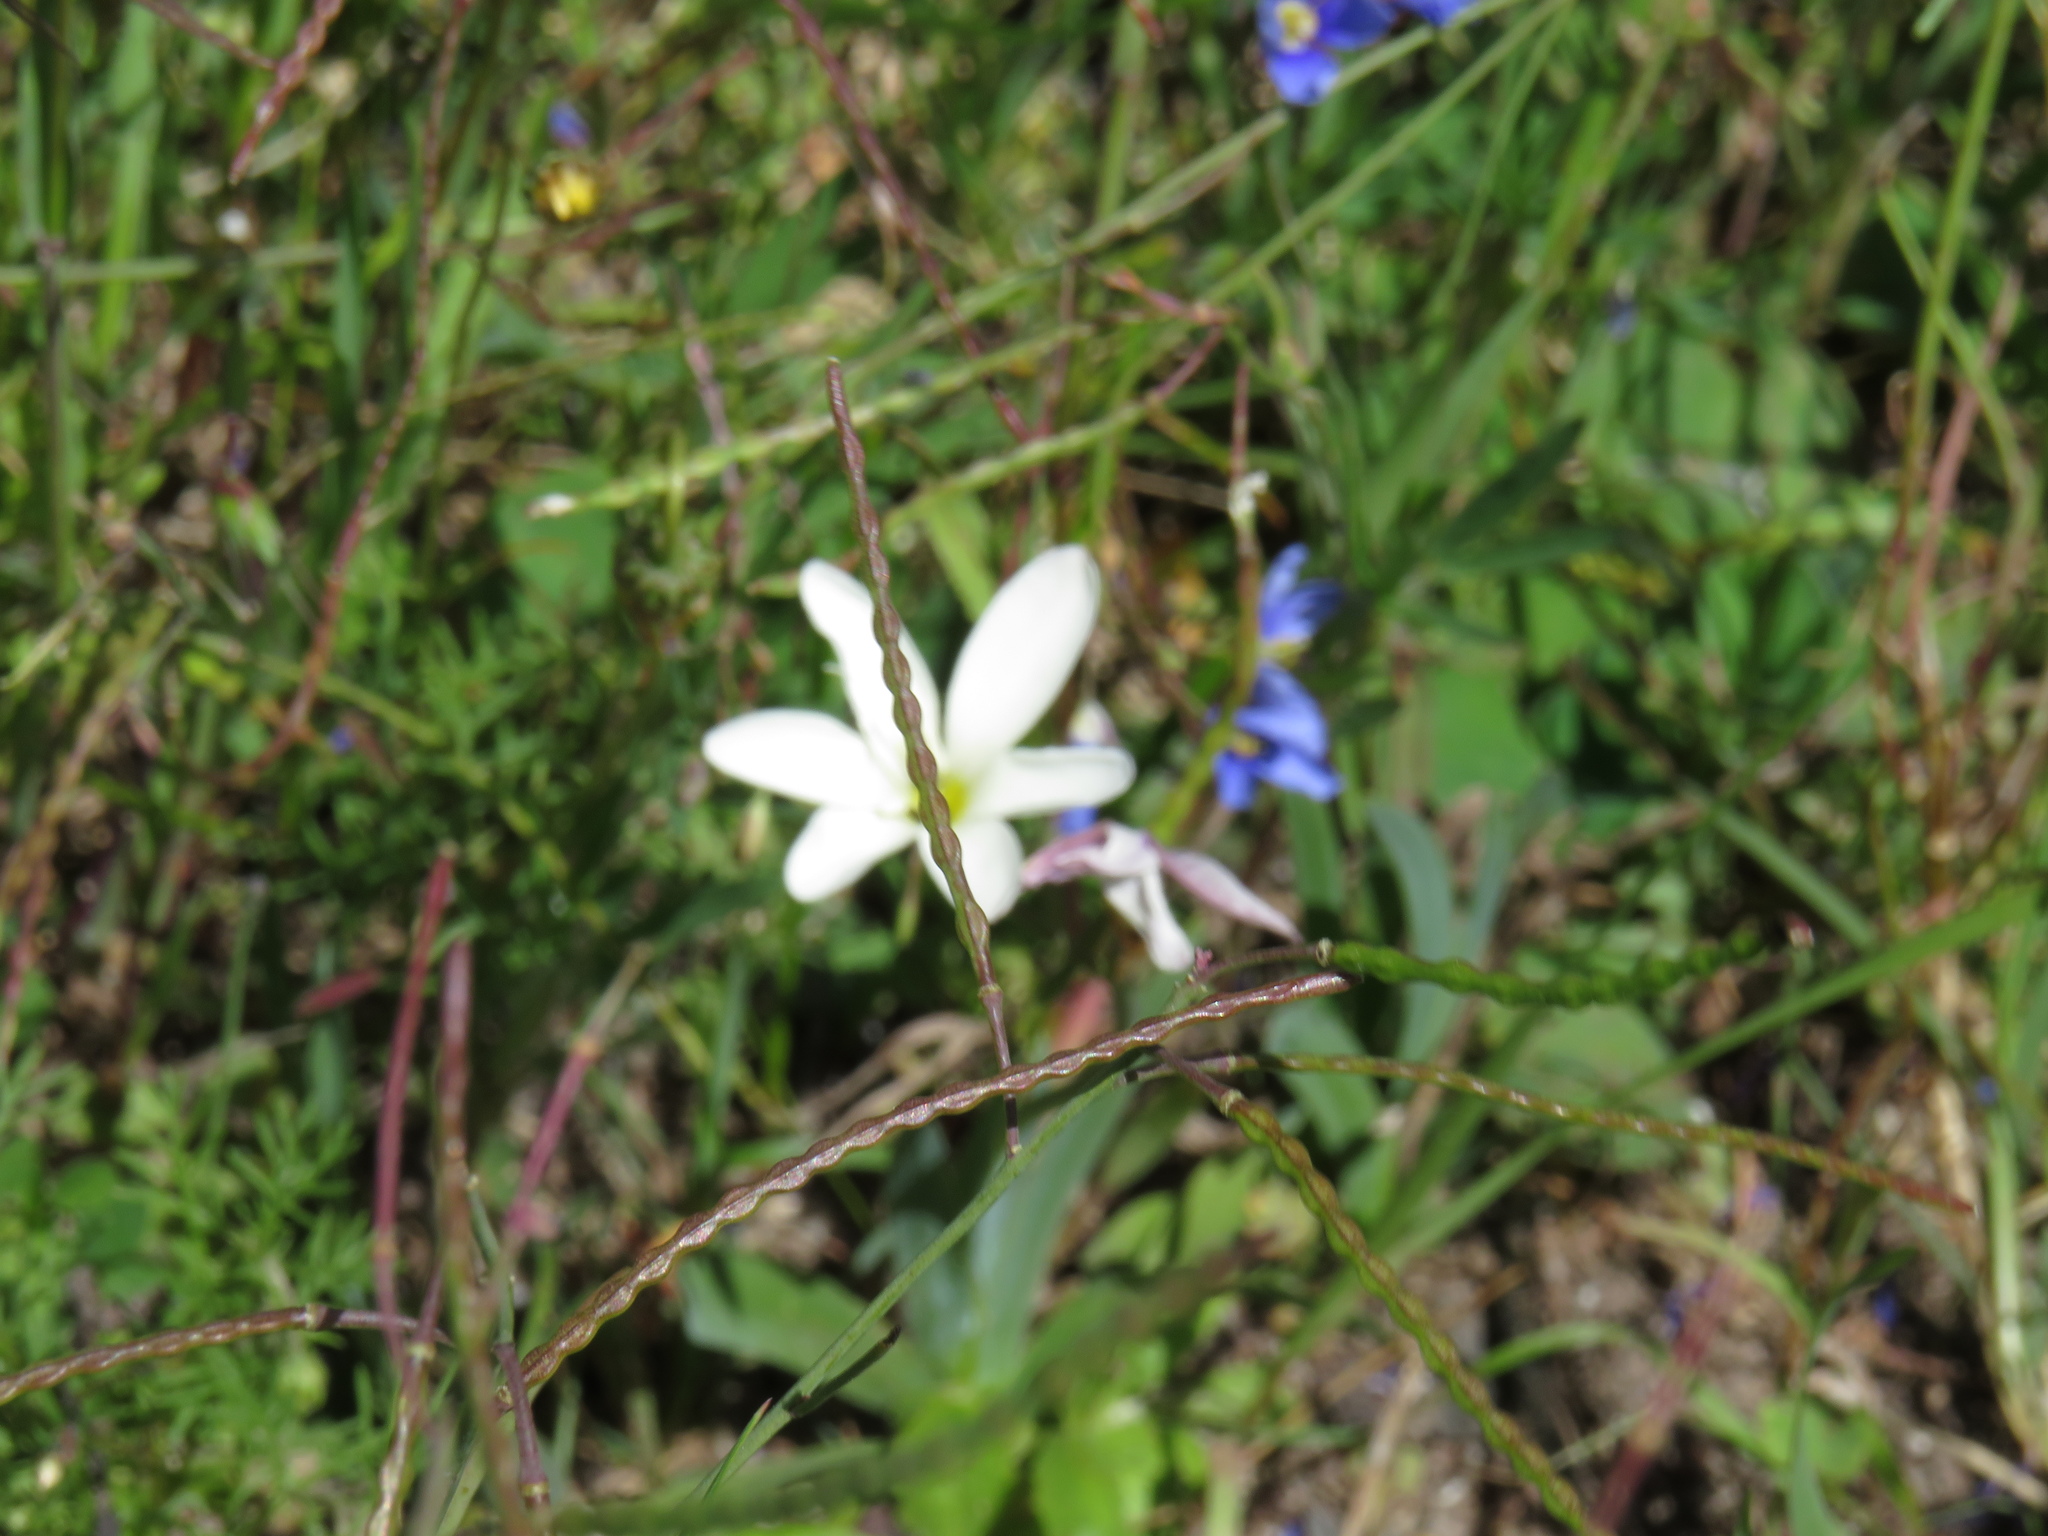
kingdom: Plantae
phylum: Tracheophyta
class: Magnoliopsida
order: Brassicales
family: Brassicaceae
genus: Heliophila
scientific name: Heliophila coronopifolia
